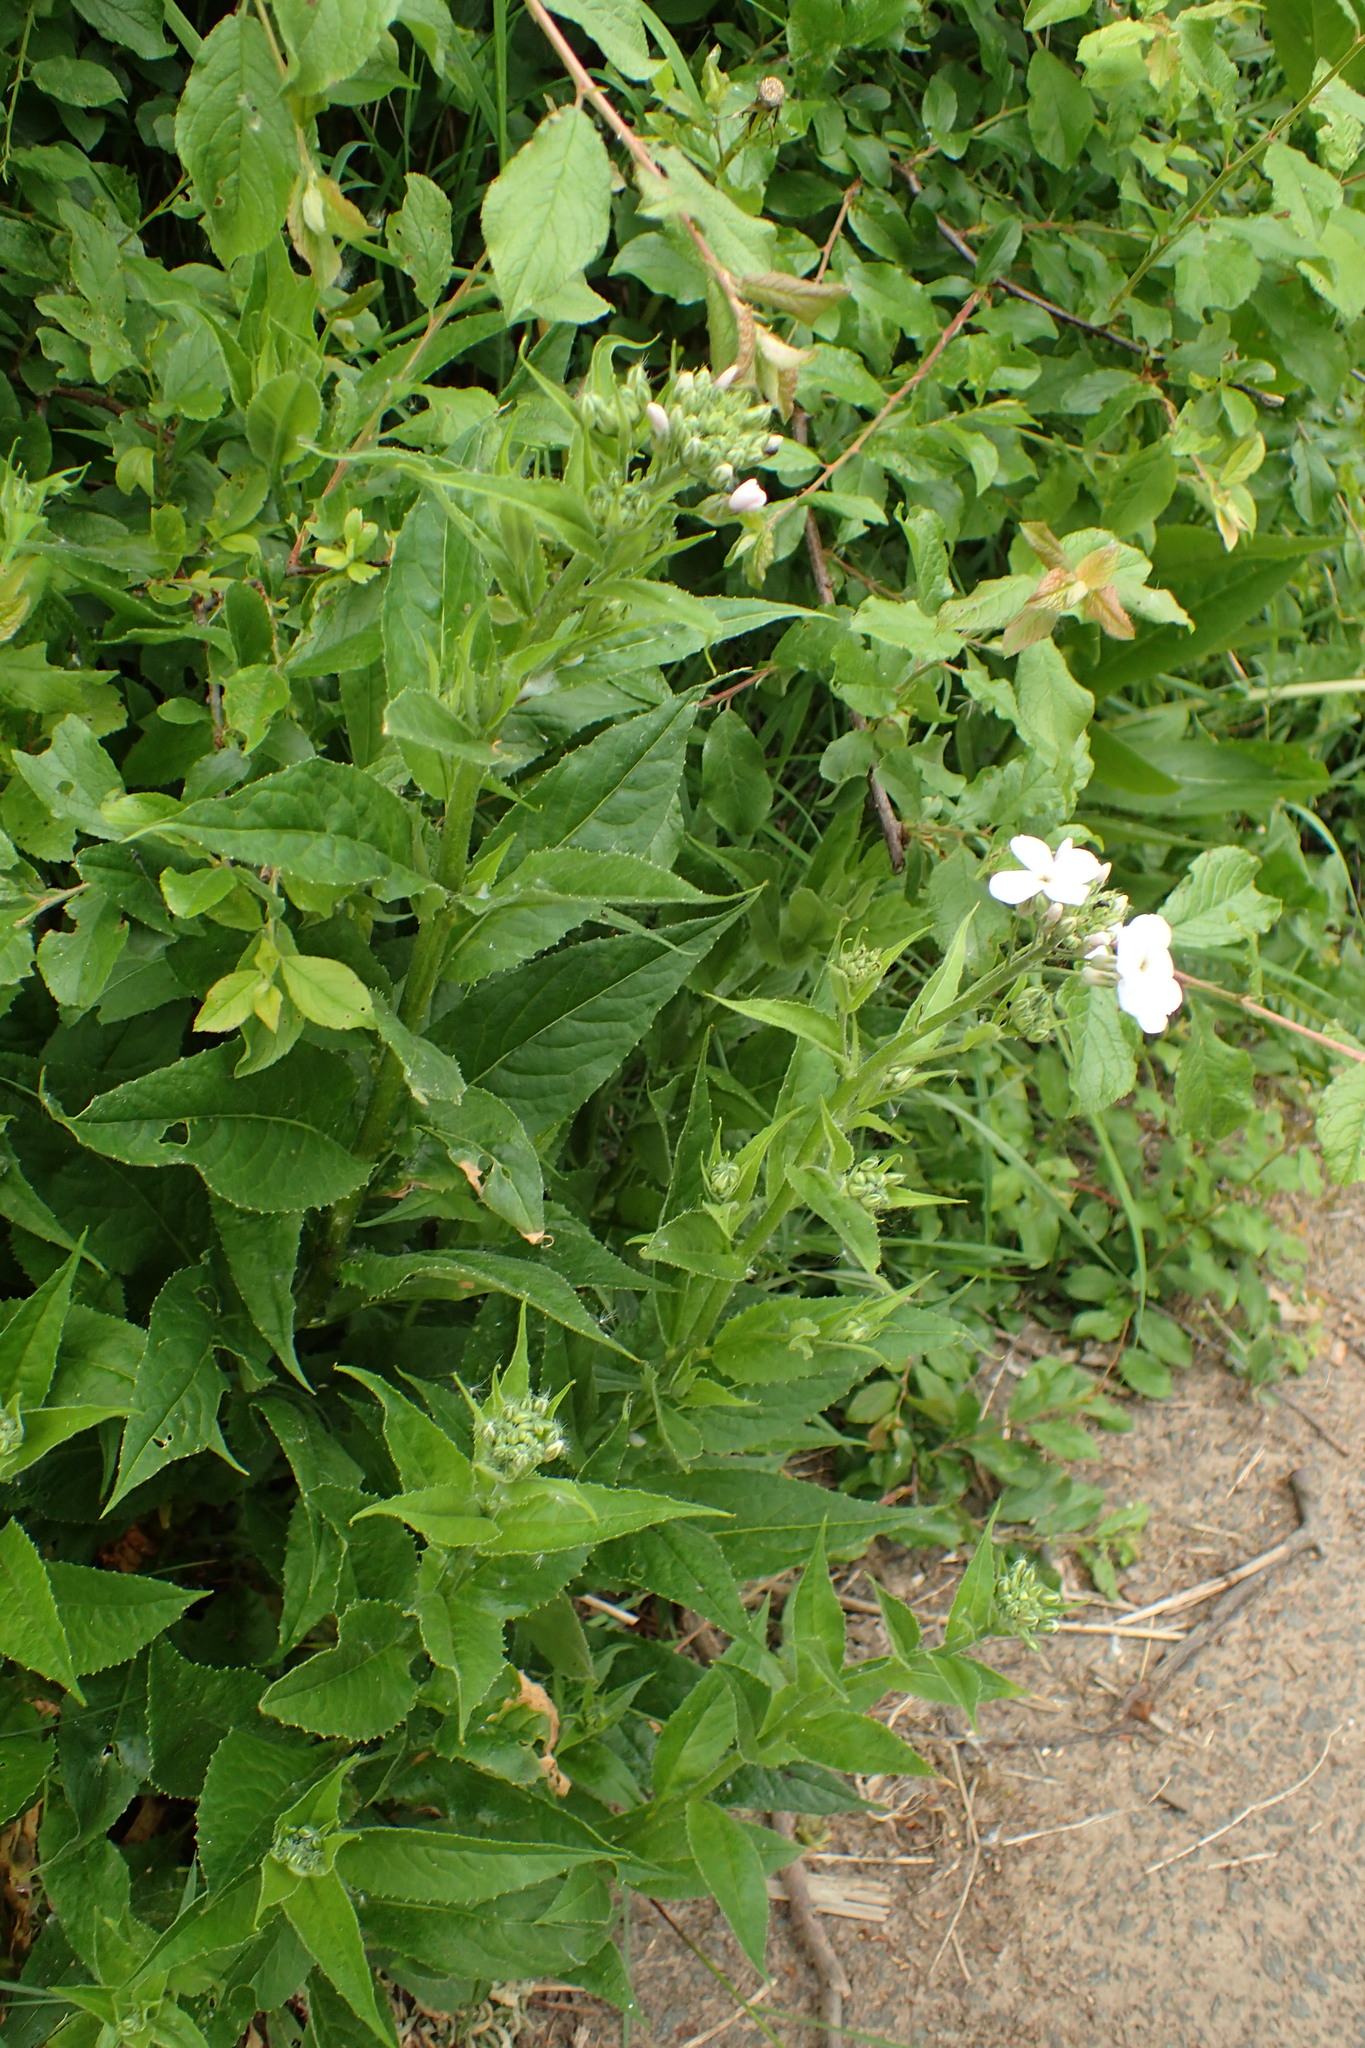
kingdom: Plantae
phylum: Tracheophyta
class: Magnoliopsida
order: Brassicales
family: Brassicaceae
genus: Hesperis
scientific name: Hesperis matronalis
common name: Dame's-violet
